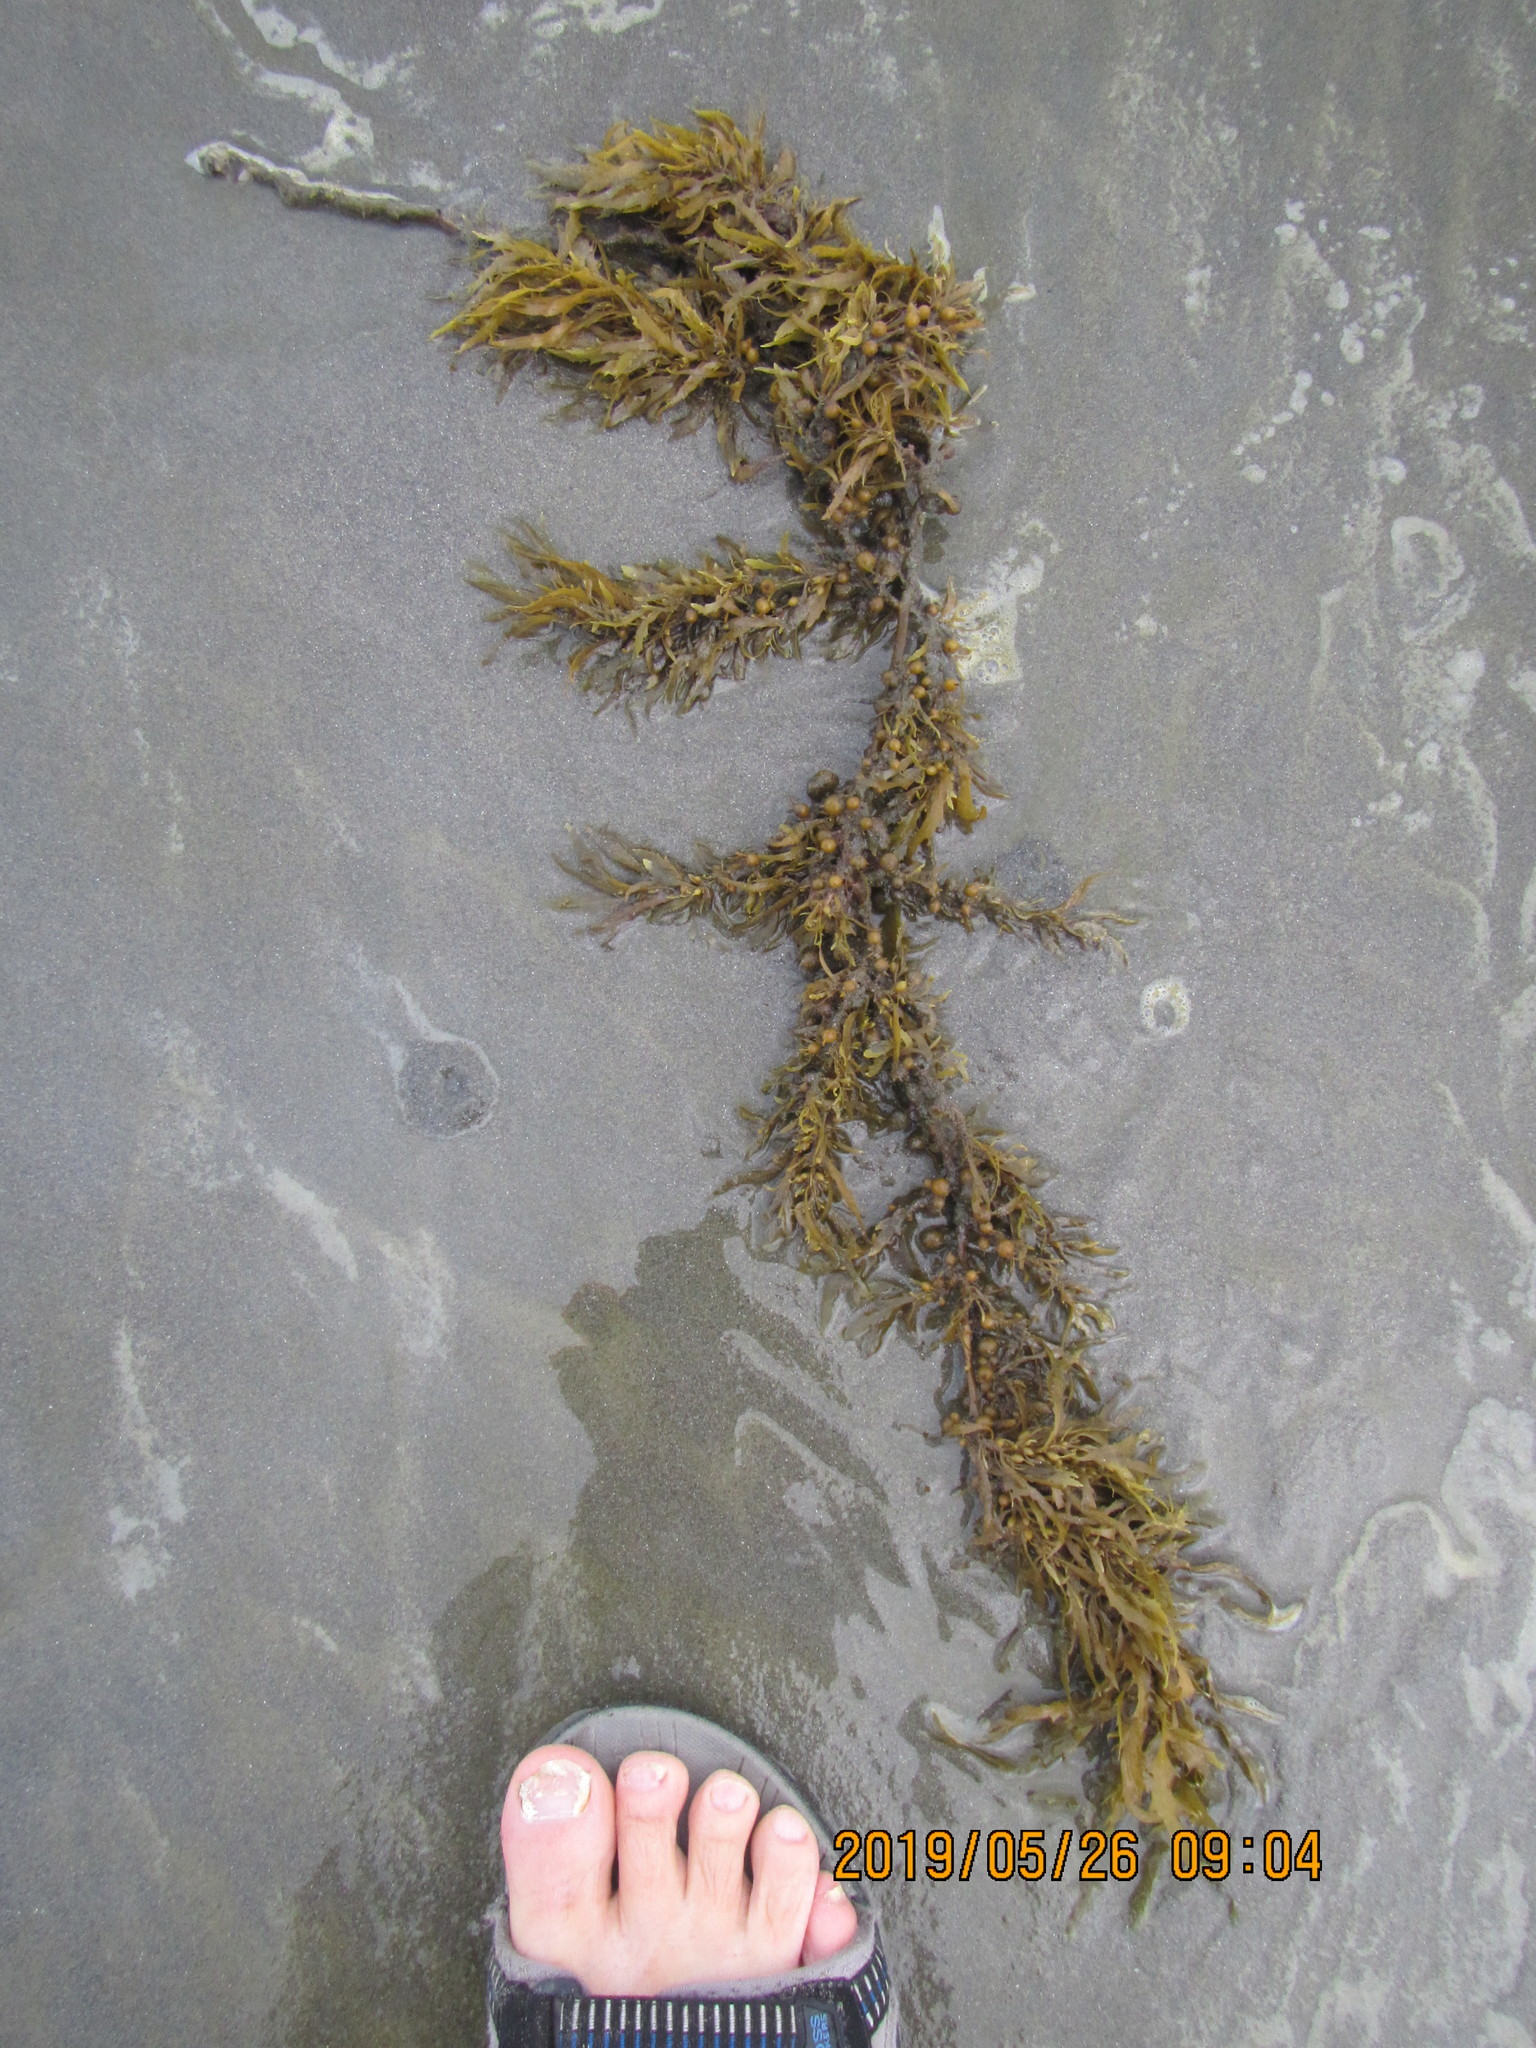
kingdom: Chromista
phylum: Ochrophyta
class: Phaeophyceae
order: Fucales
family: Sargassaceae
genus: Sargassum
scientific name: Sargassum sinclairii
